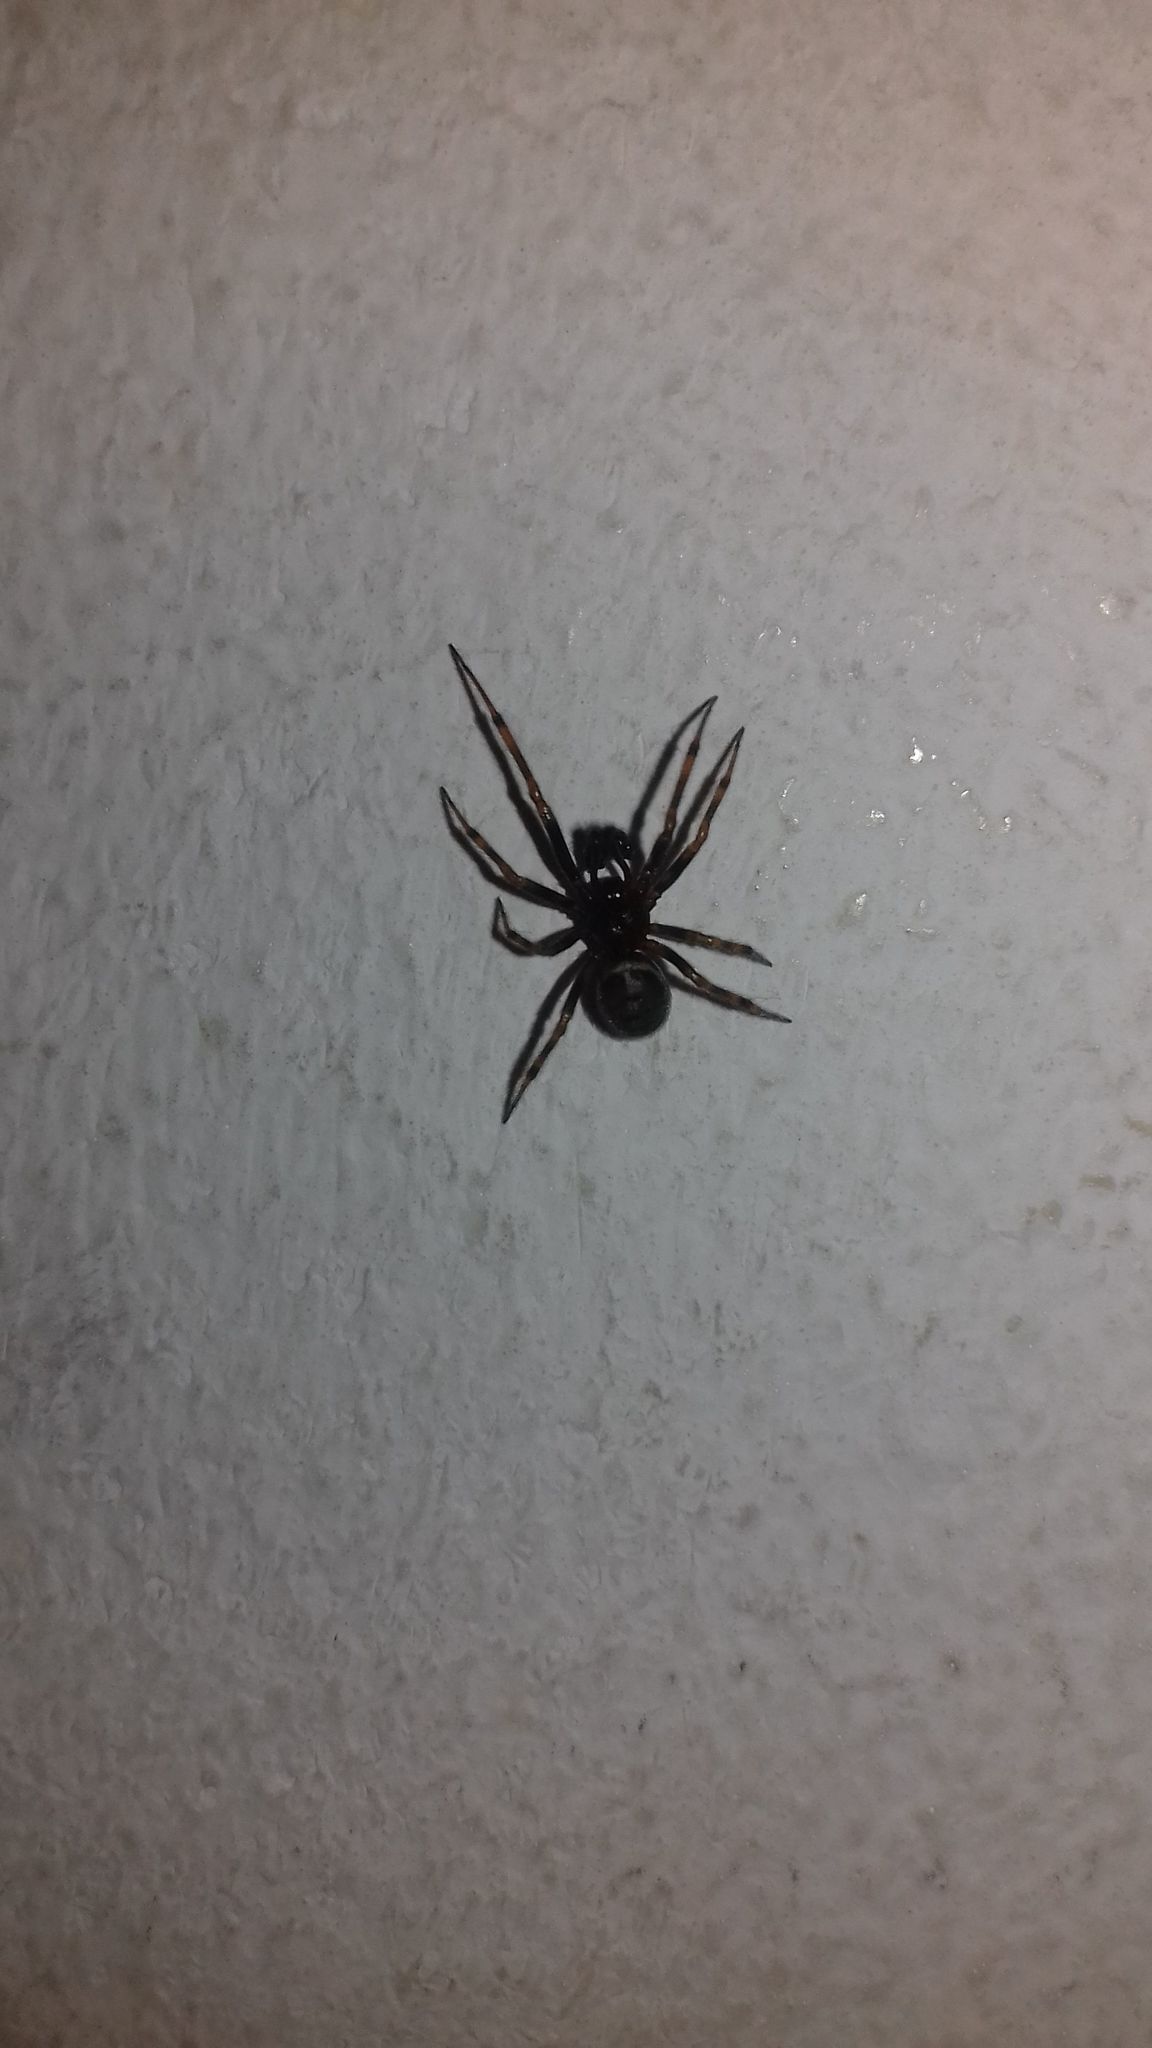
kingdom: Animalia
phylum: Arthropoda
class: Arachnida
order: Araneae
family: Theridiidae
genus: Steatoda
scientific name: Steatoda bipunctata
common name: False widow
